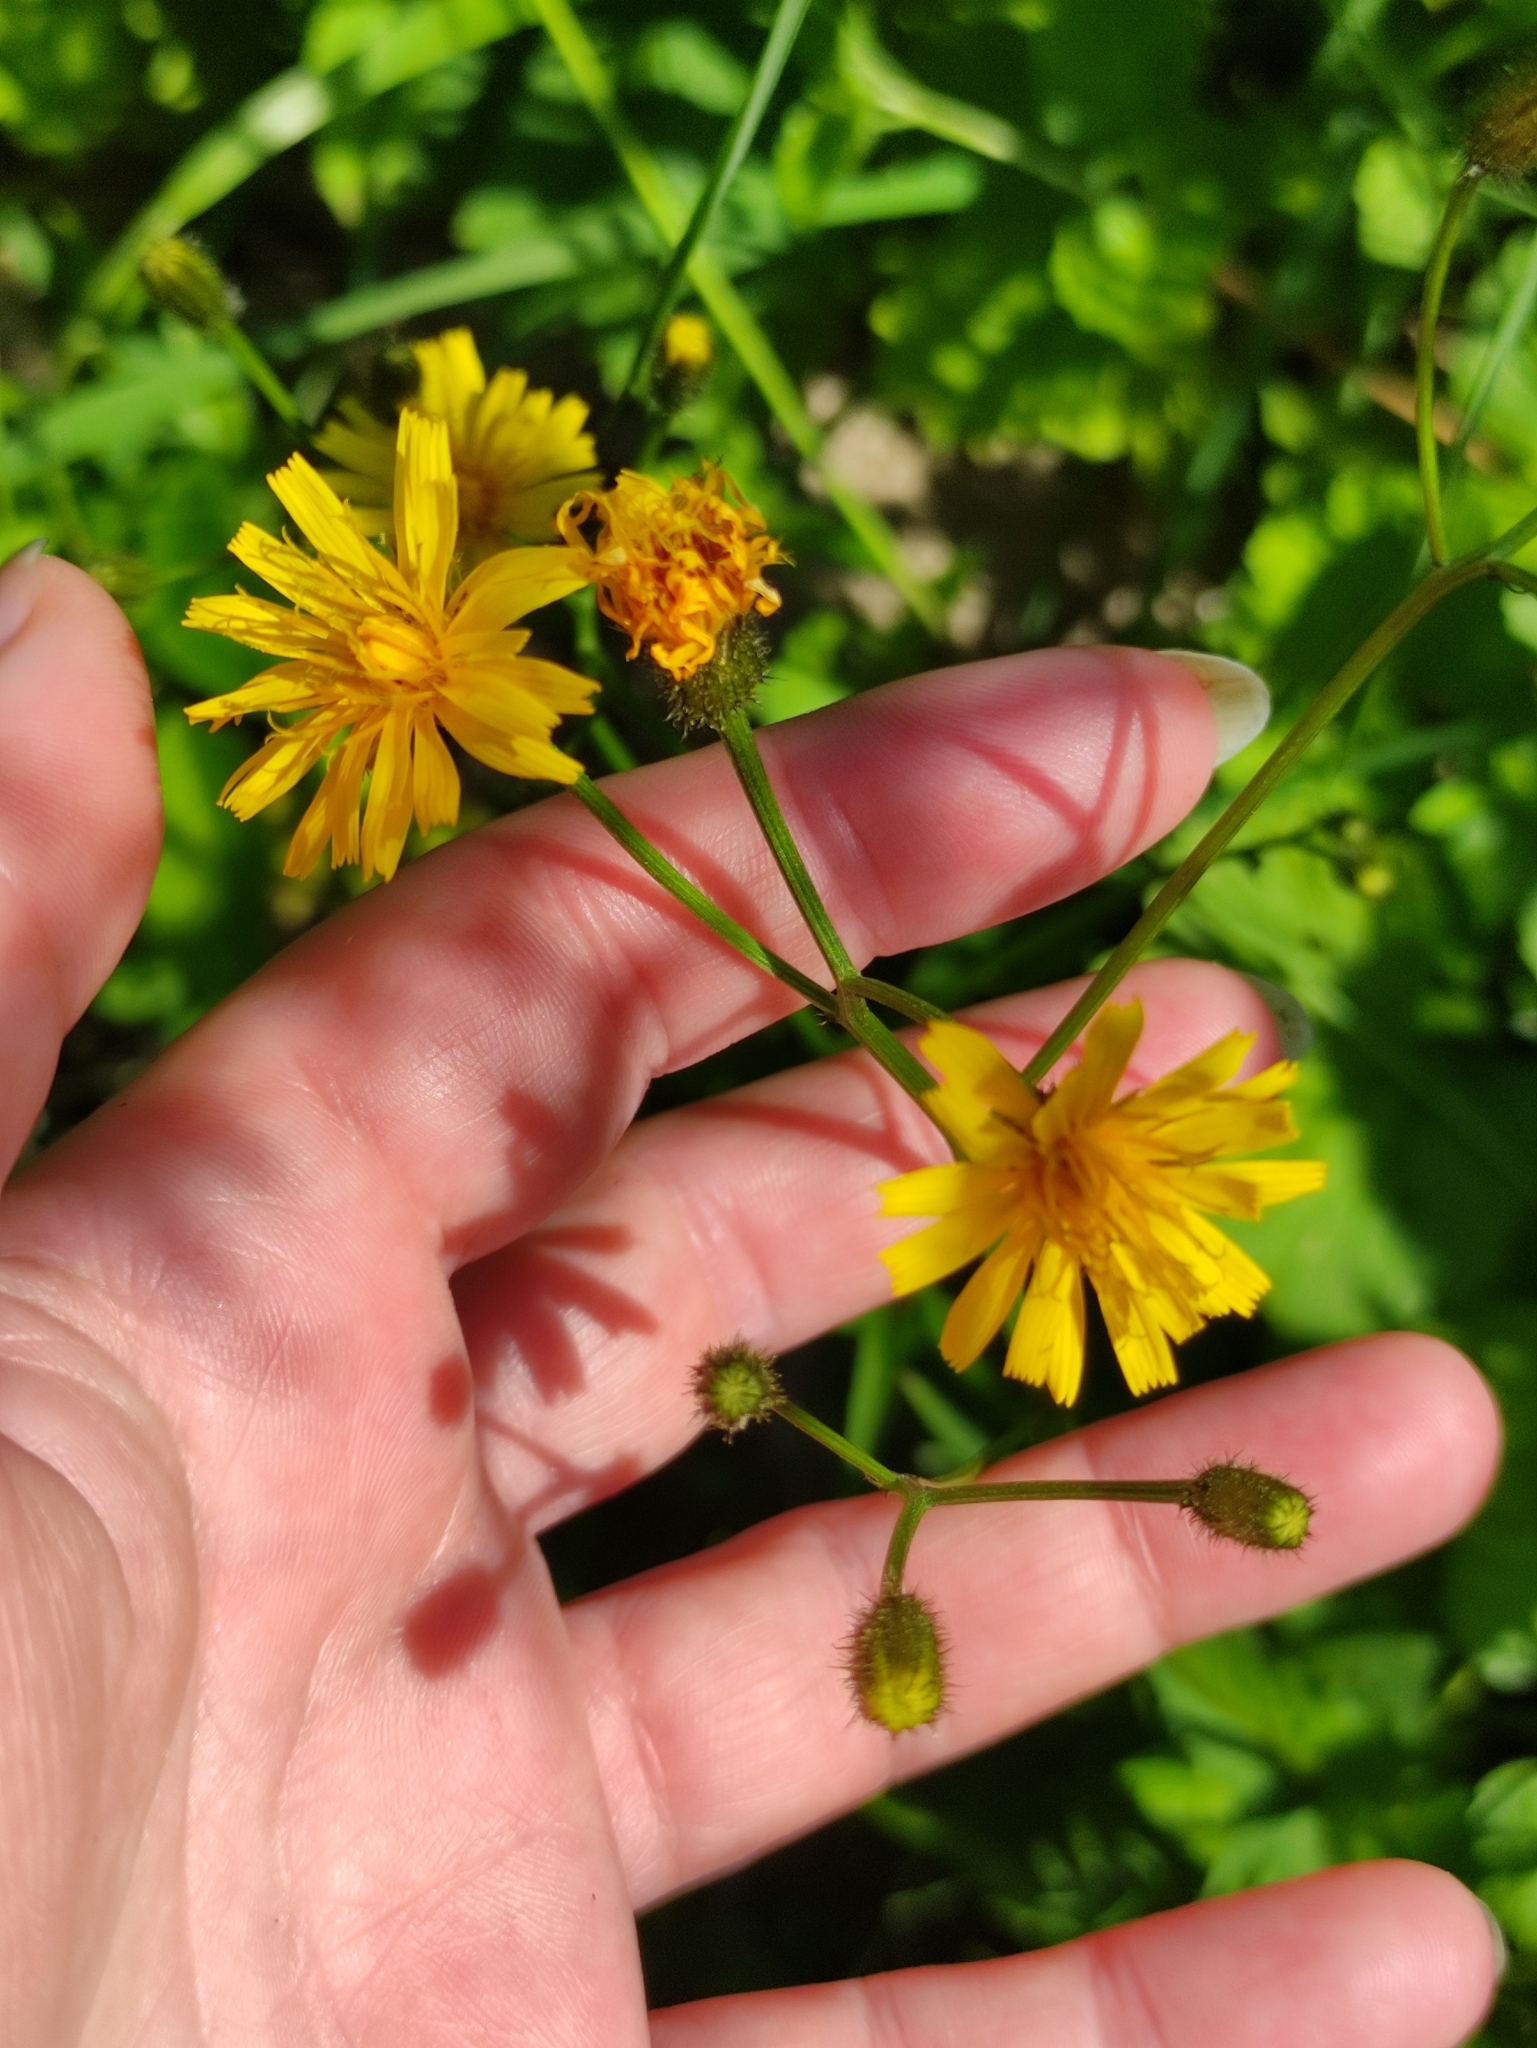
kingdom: Plantae
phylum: Tracheophyta
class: Magnoliopsida
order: Asterales
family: Asteraceae
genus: Crepis
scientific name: Crepis paludosa
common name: Marsh hawk's-beard
